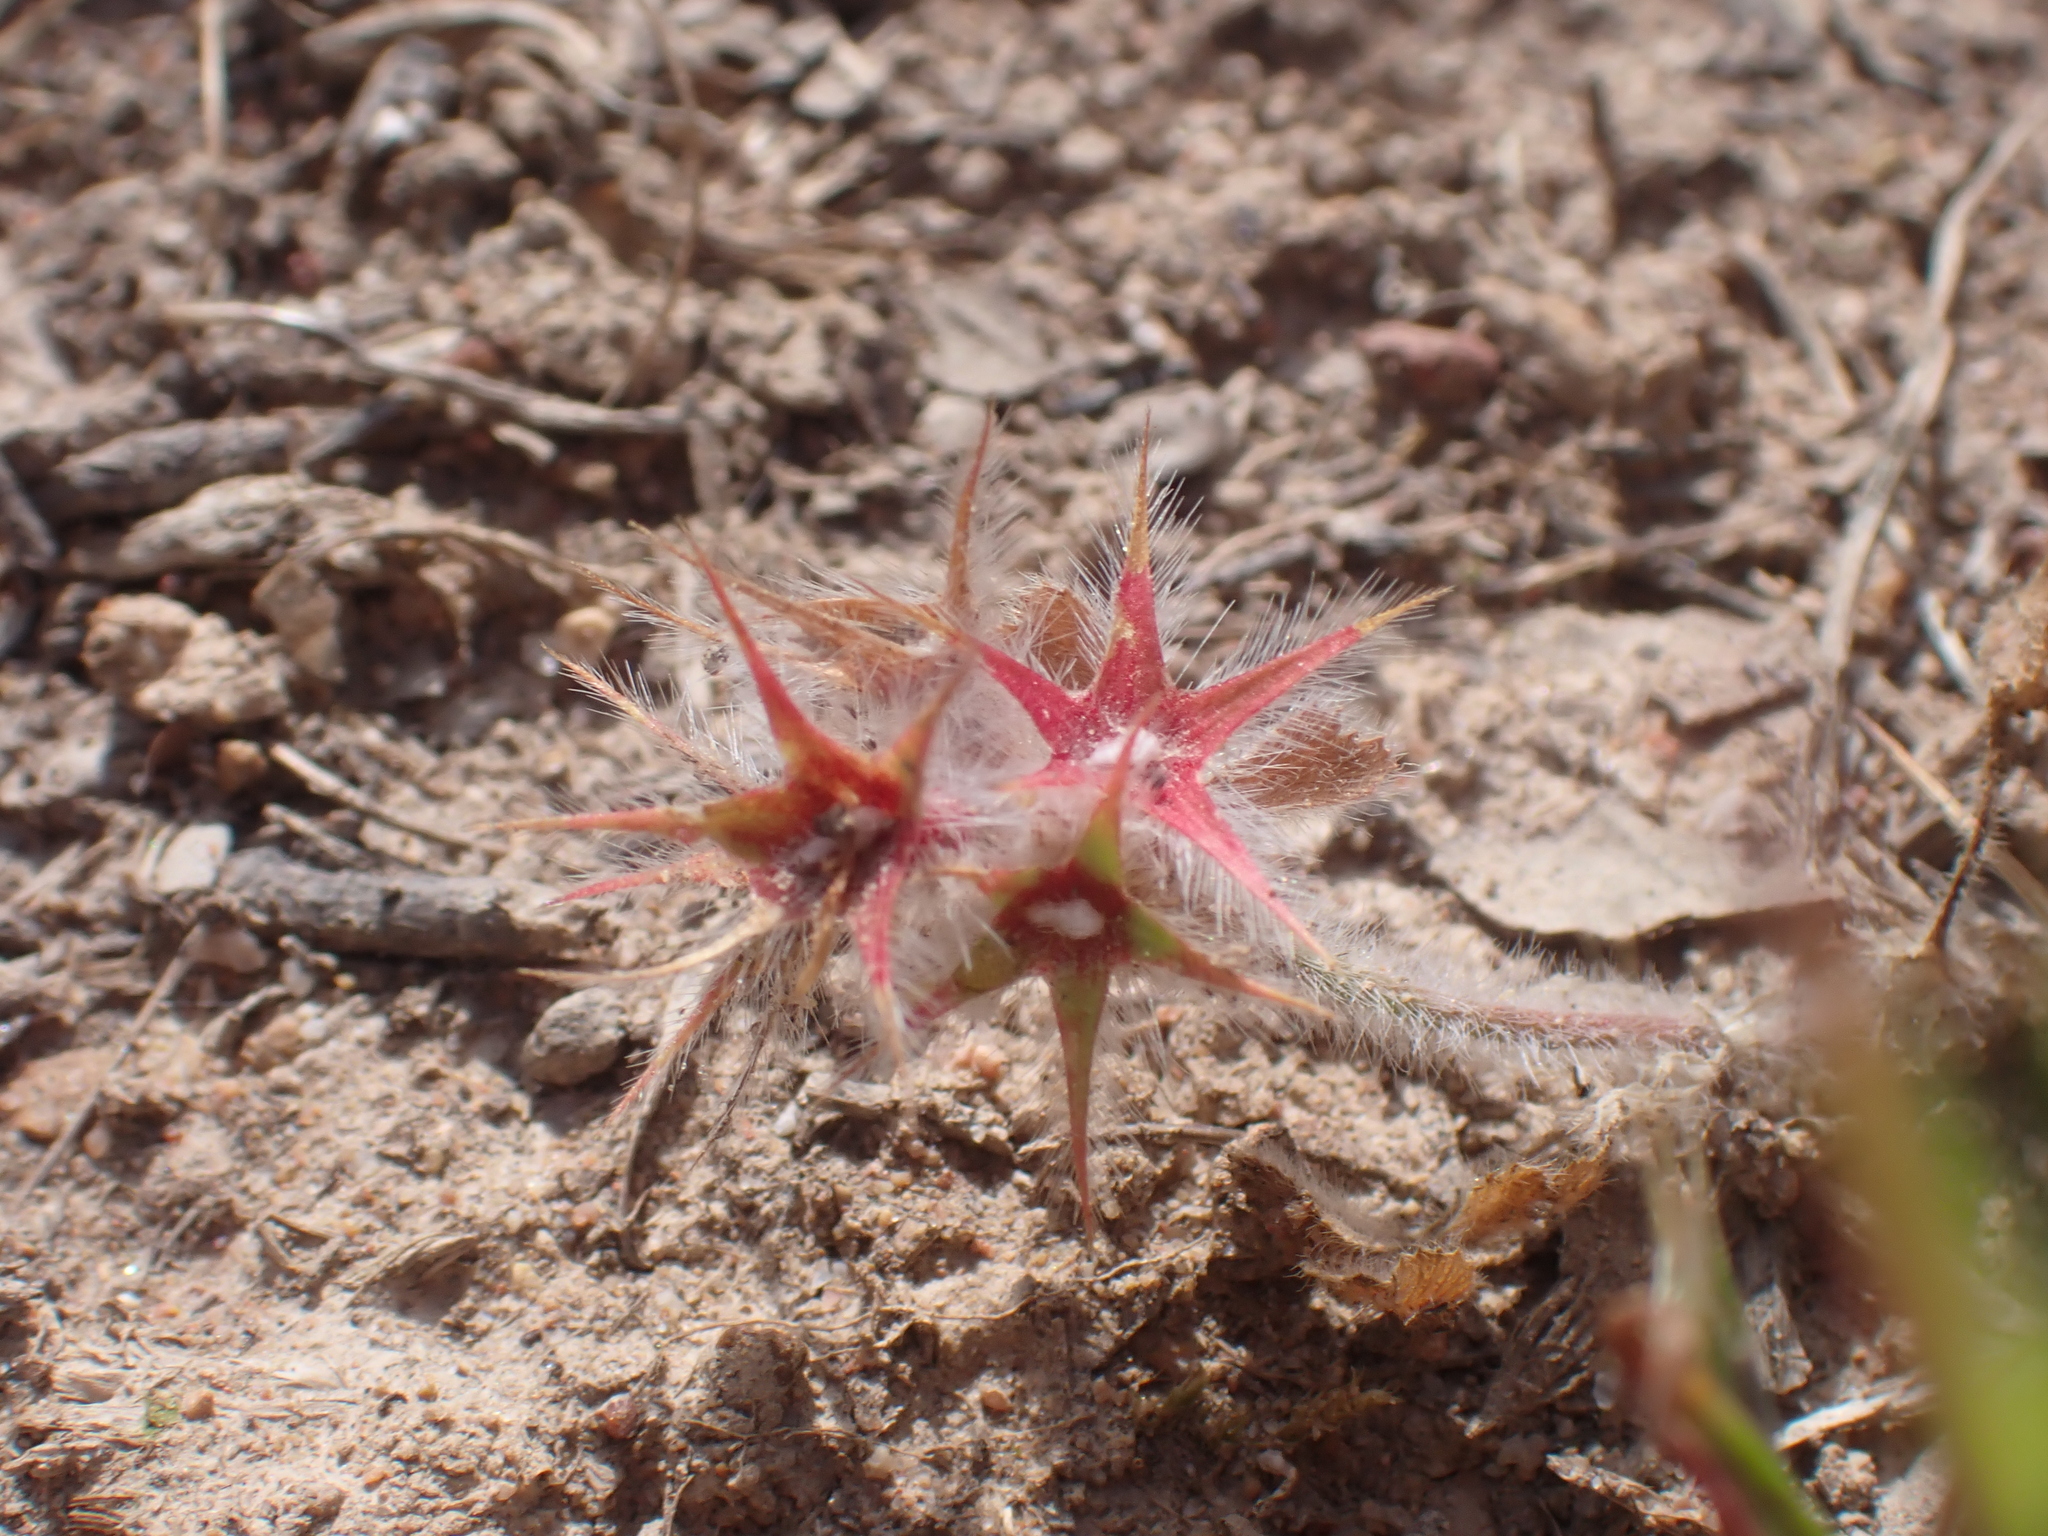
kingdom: Plantae
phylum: Tracheophyta
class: Magnoliopsida
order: Fabales
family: Fabaceae
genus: Trifolium
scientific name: Trifolium stellatum
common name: Starry clover
